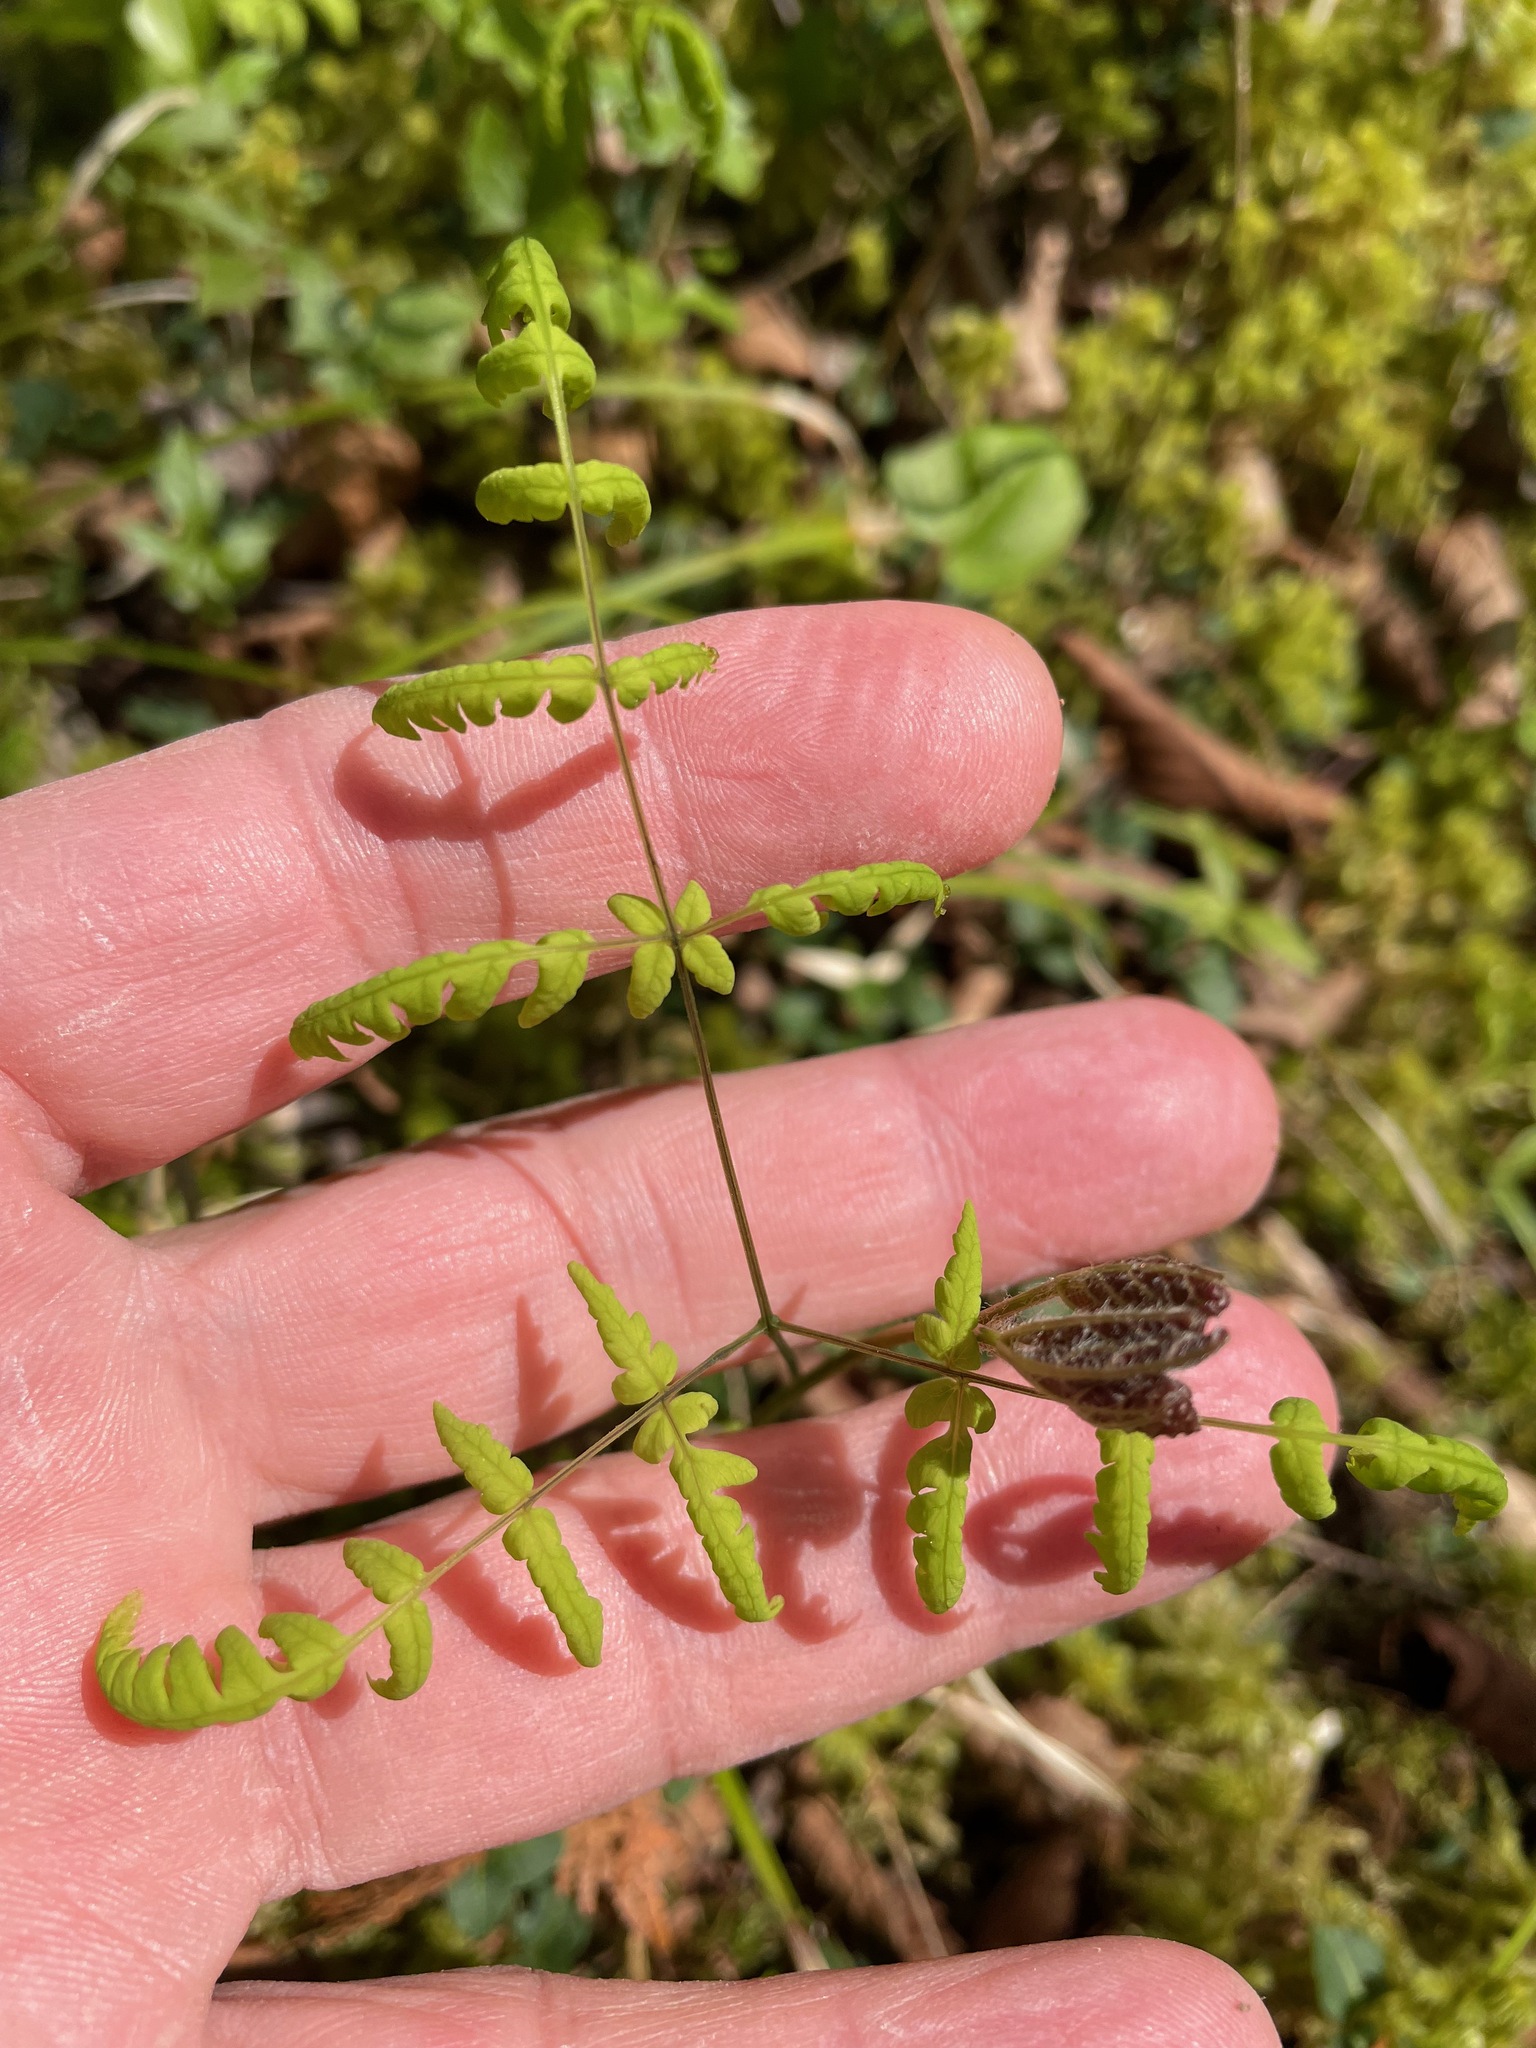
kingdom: Plantae
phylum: Tracheophyta
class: Polypodiopsida
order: Polypodiales
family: Cystopteridaceae
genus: Gymnocarpium
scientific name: Gymnocarpium dryopteris
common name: Oak fern
